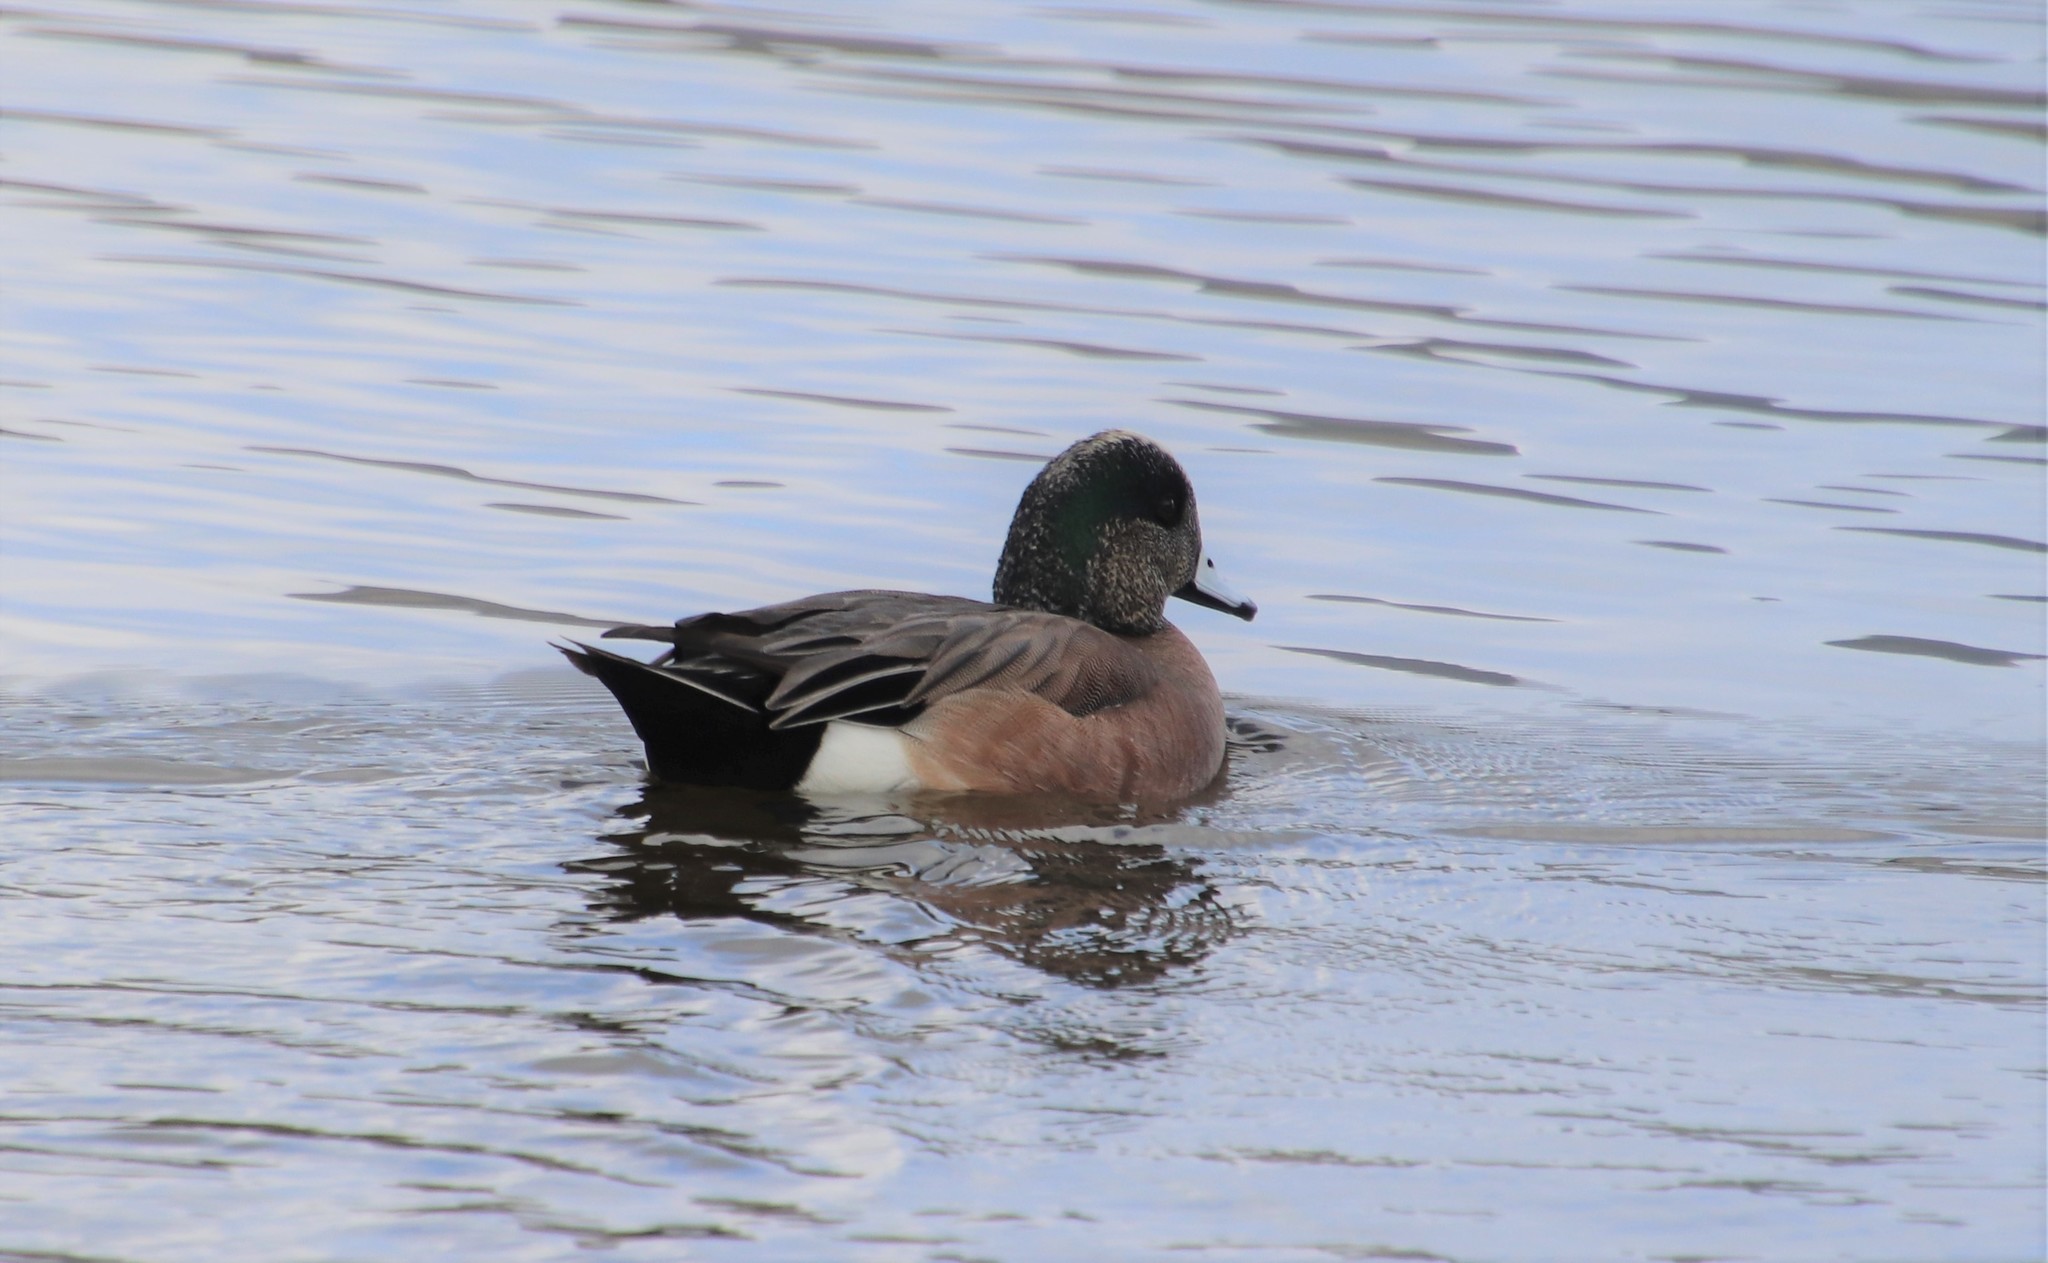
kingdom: Animalia
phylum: Chordata
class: Aves
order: Anseriformes
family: Anatidae
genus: Mareca
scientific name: Mareca americana
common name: American wigeon
